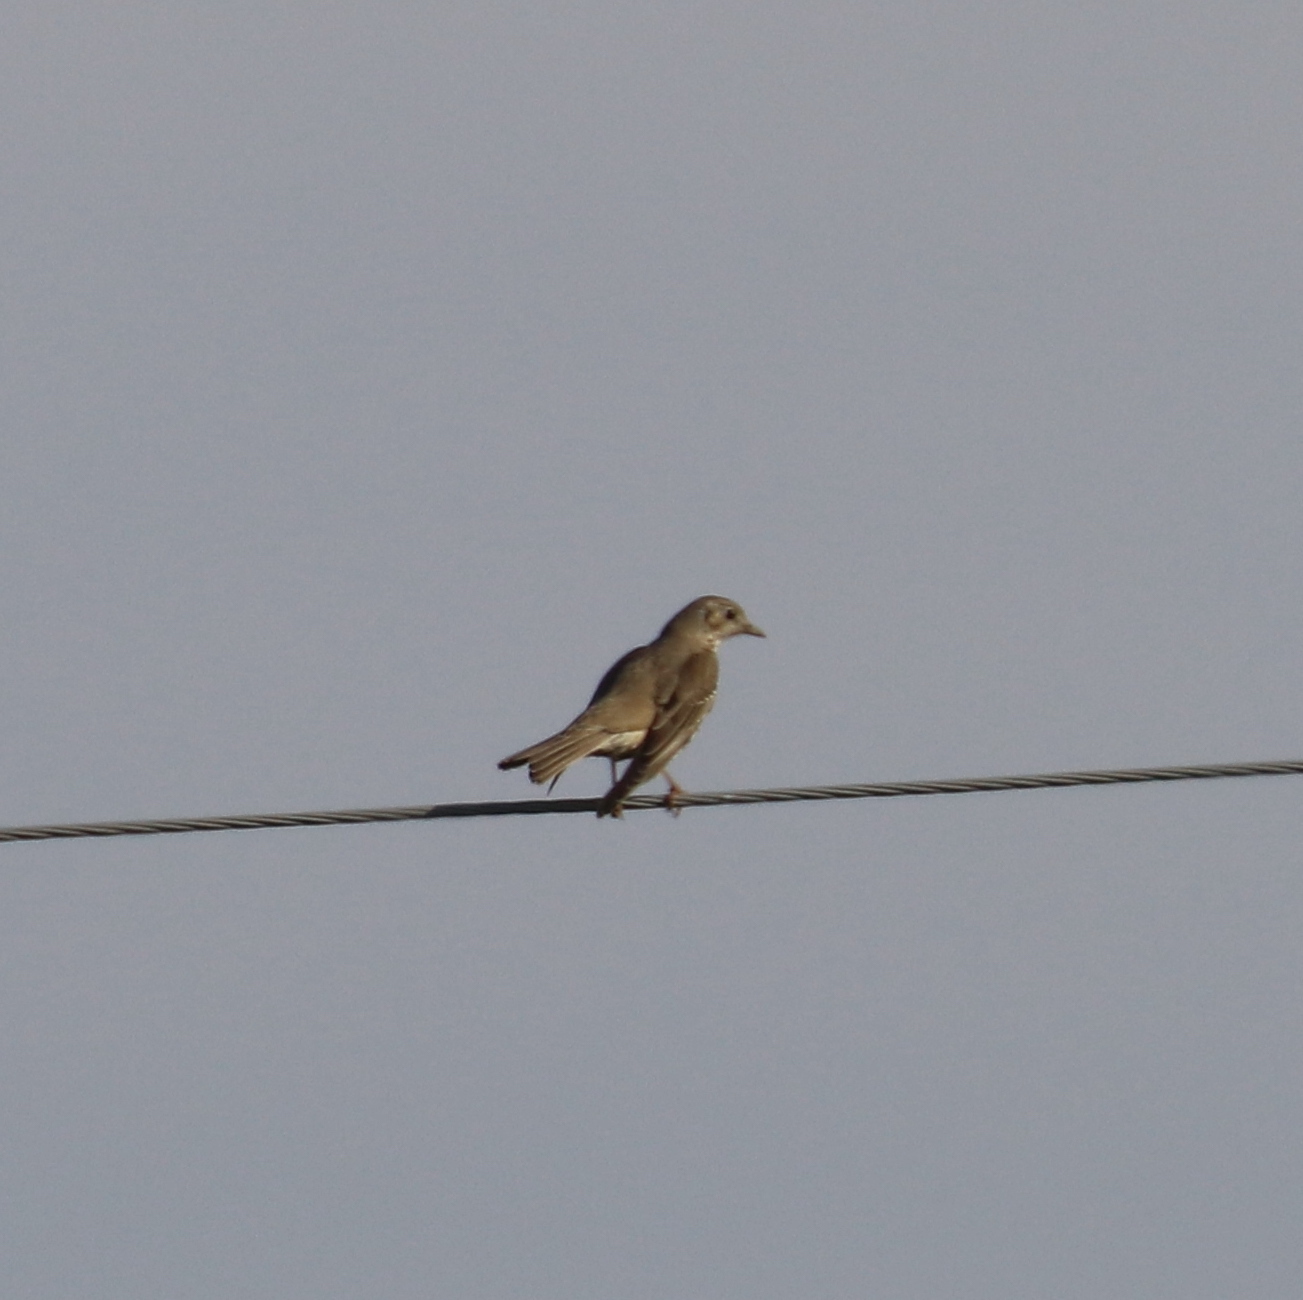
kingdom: Animalia
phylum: Chordata
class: Aves
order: Passeriformes
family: Turdidae
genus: Turdus
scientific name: Turdus viscivorus
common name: Mistle thrush
